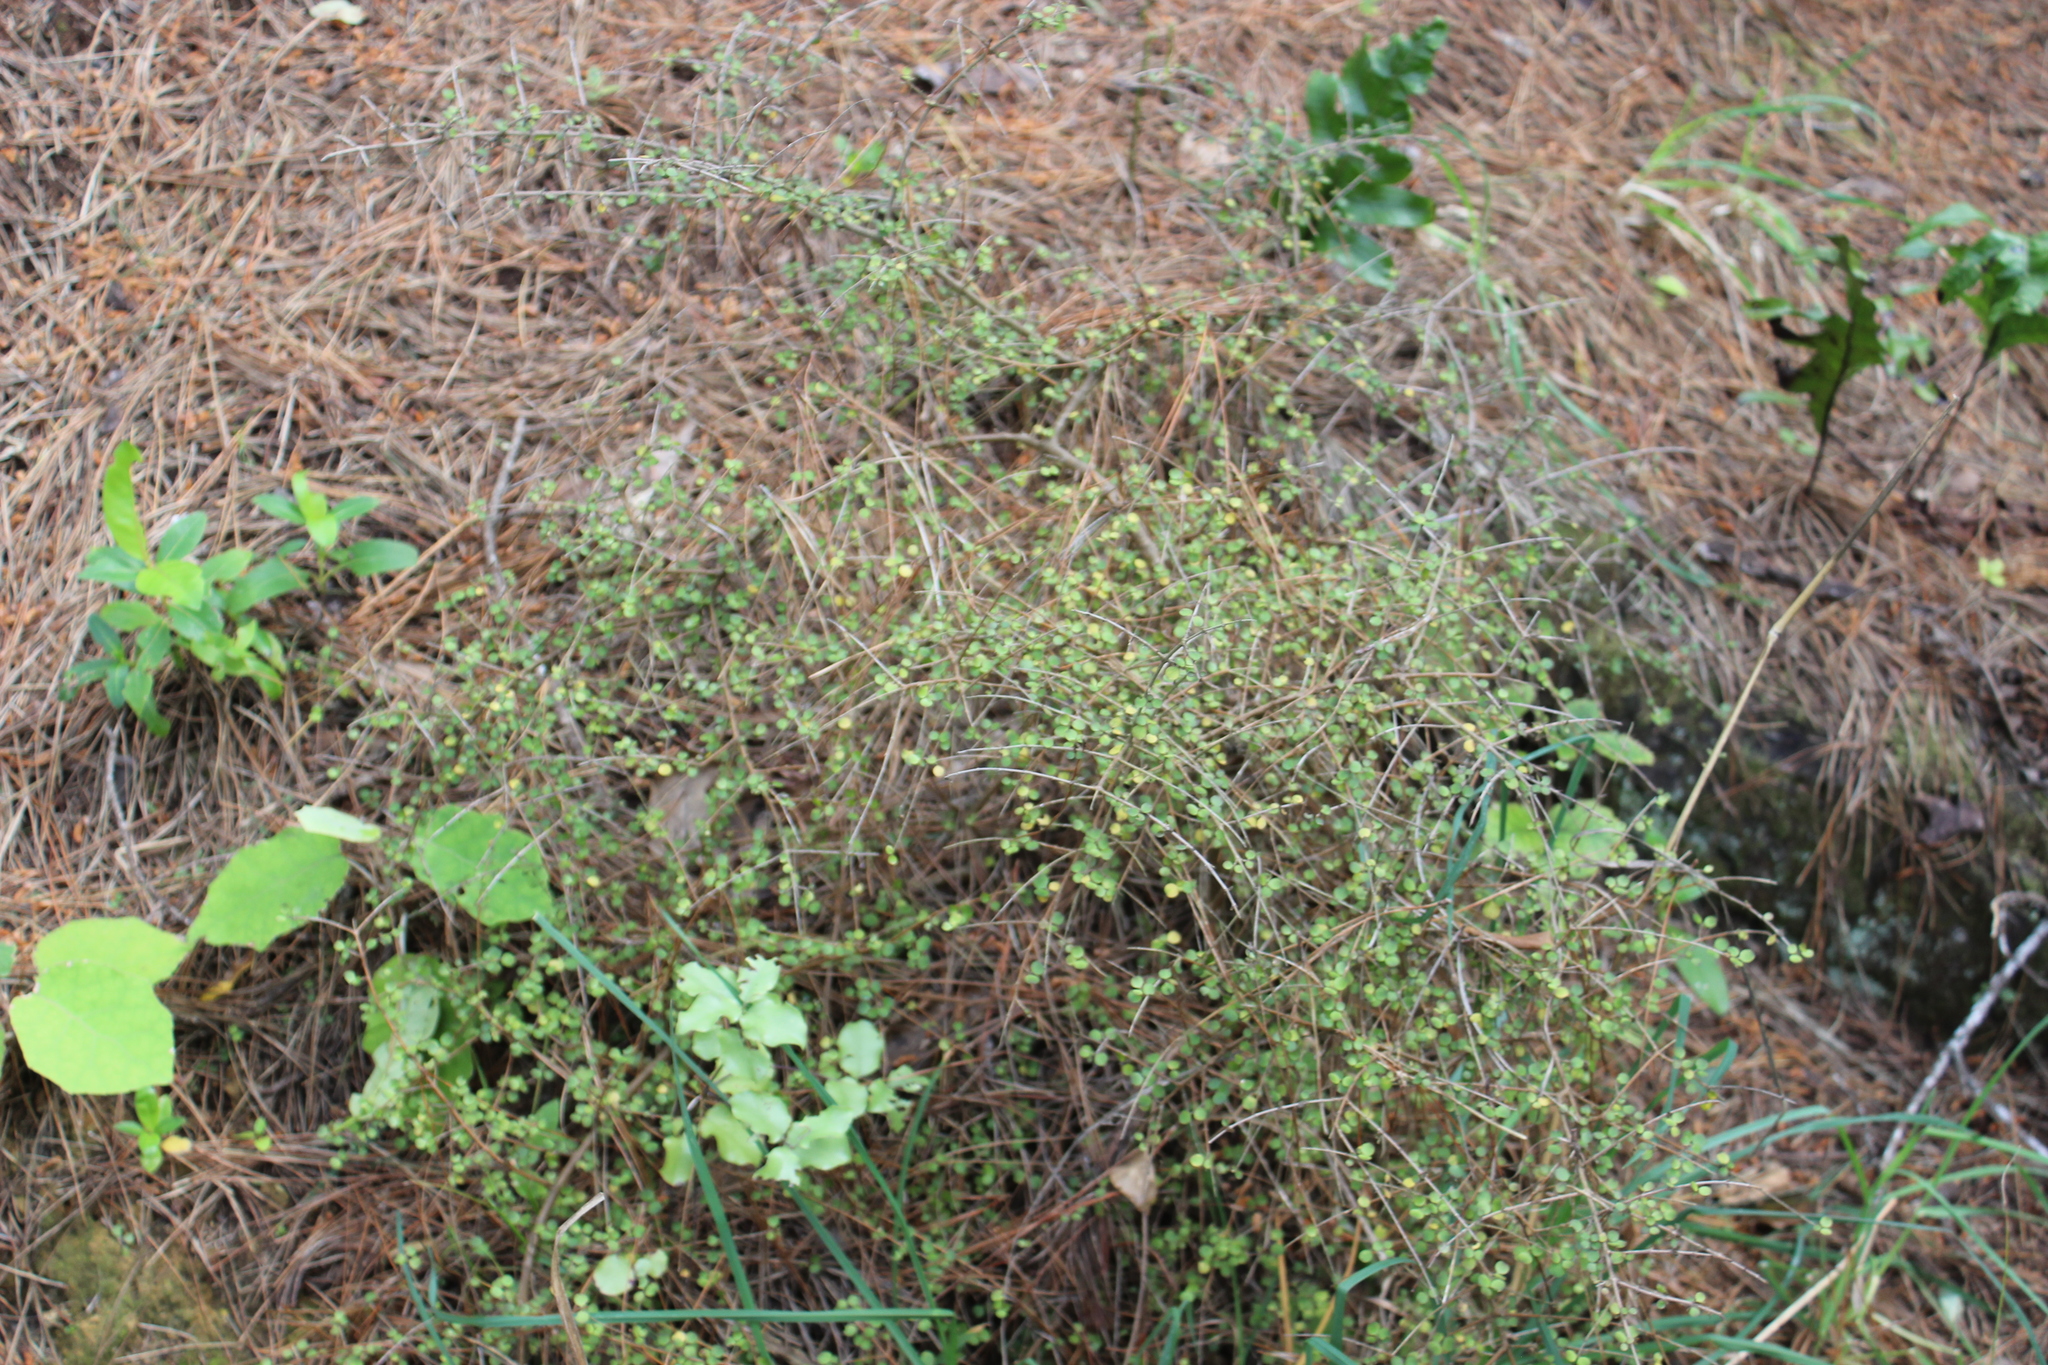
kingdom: Plantae
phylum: Tracheophyta
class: Magnoliopsida
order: Gentianales
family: Rubiaceae
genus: Coprosma
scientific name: Coprosma rhamnoides
